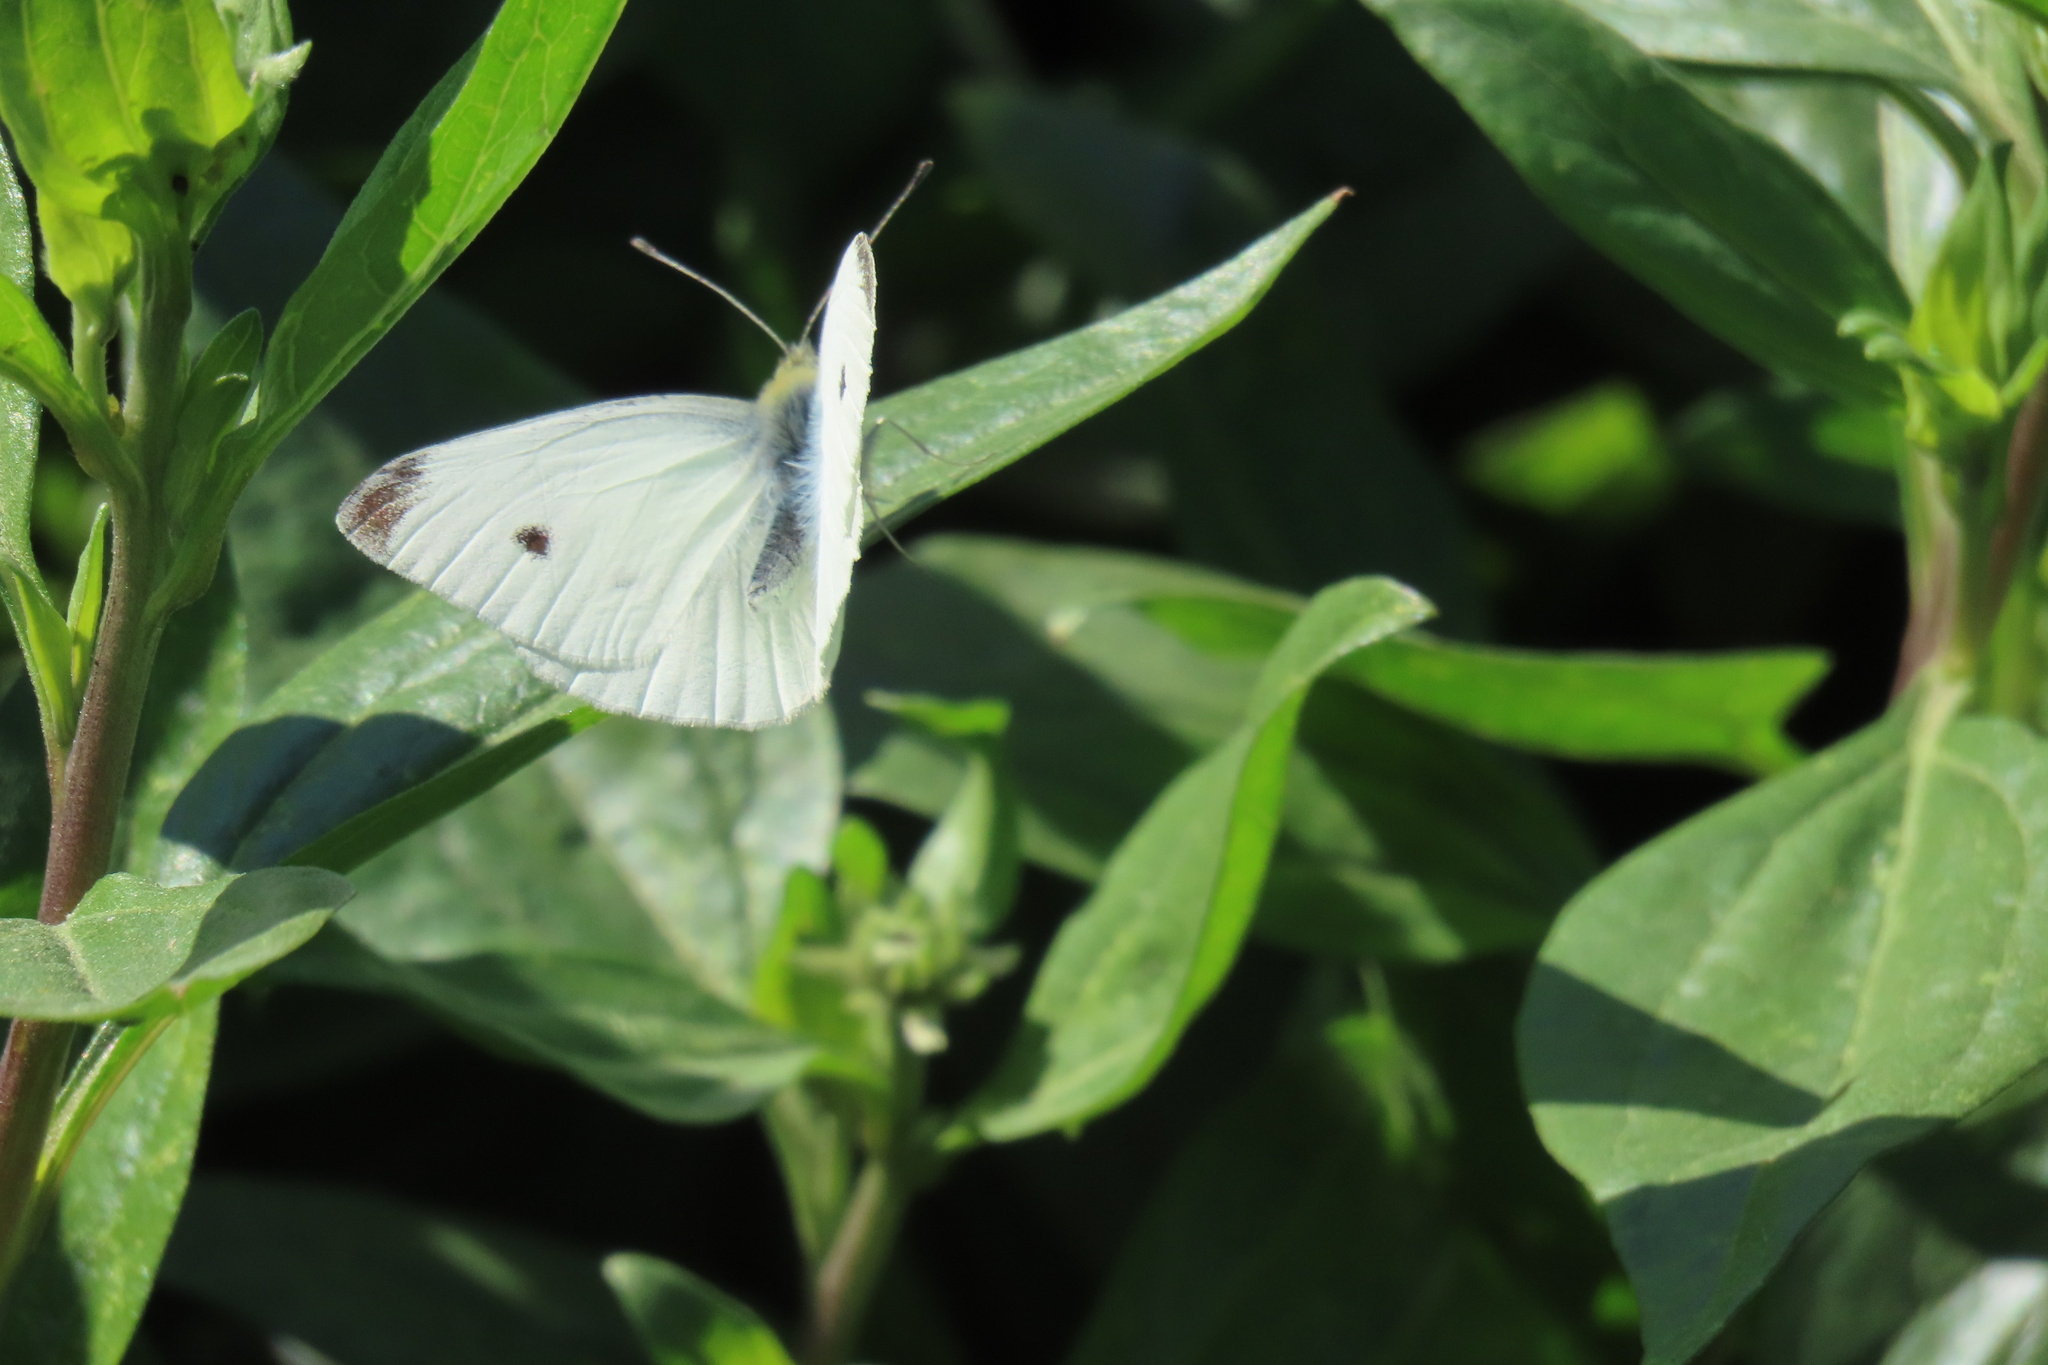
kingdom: Animalia
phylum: Arthropoda
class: Insecta
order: Lepidoptera
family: Pieridae
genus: Pieris
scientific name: Pieris rapae
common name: Small white
